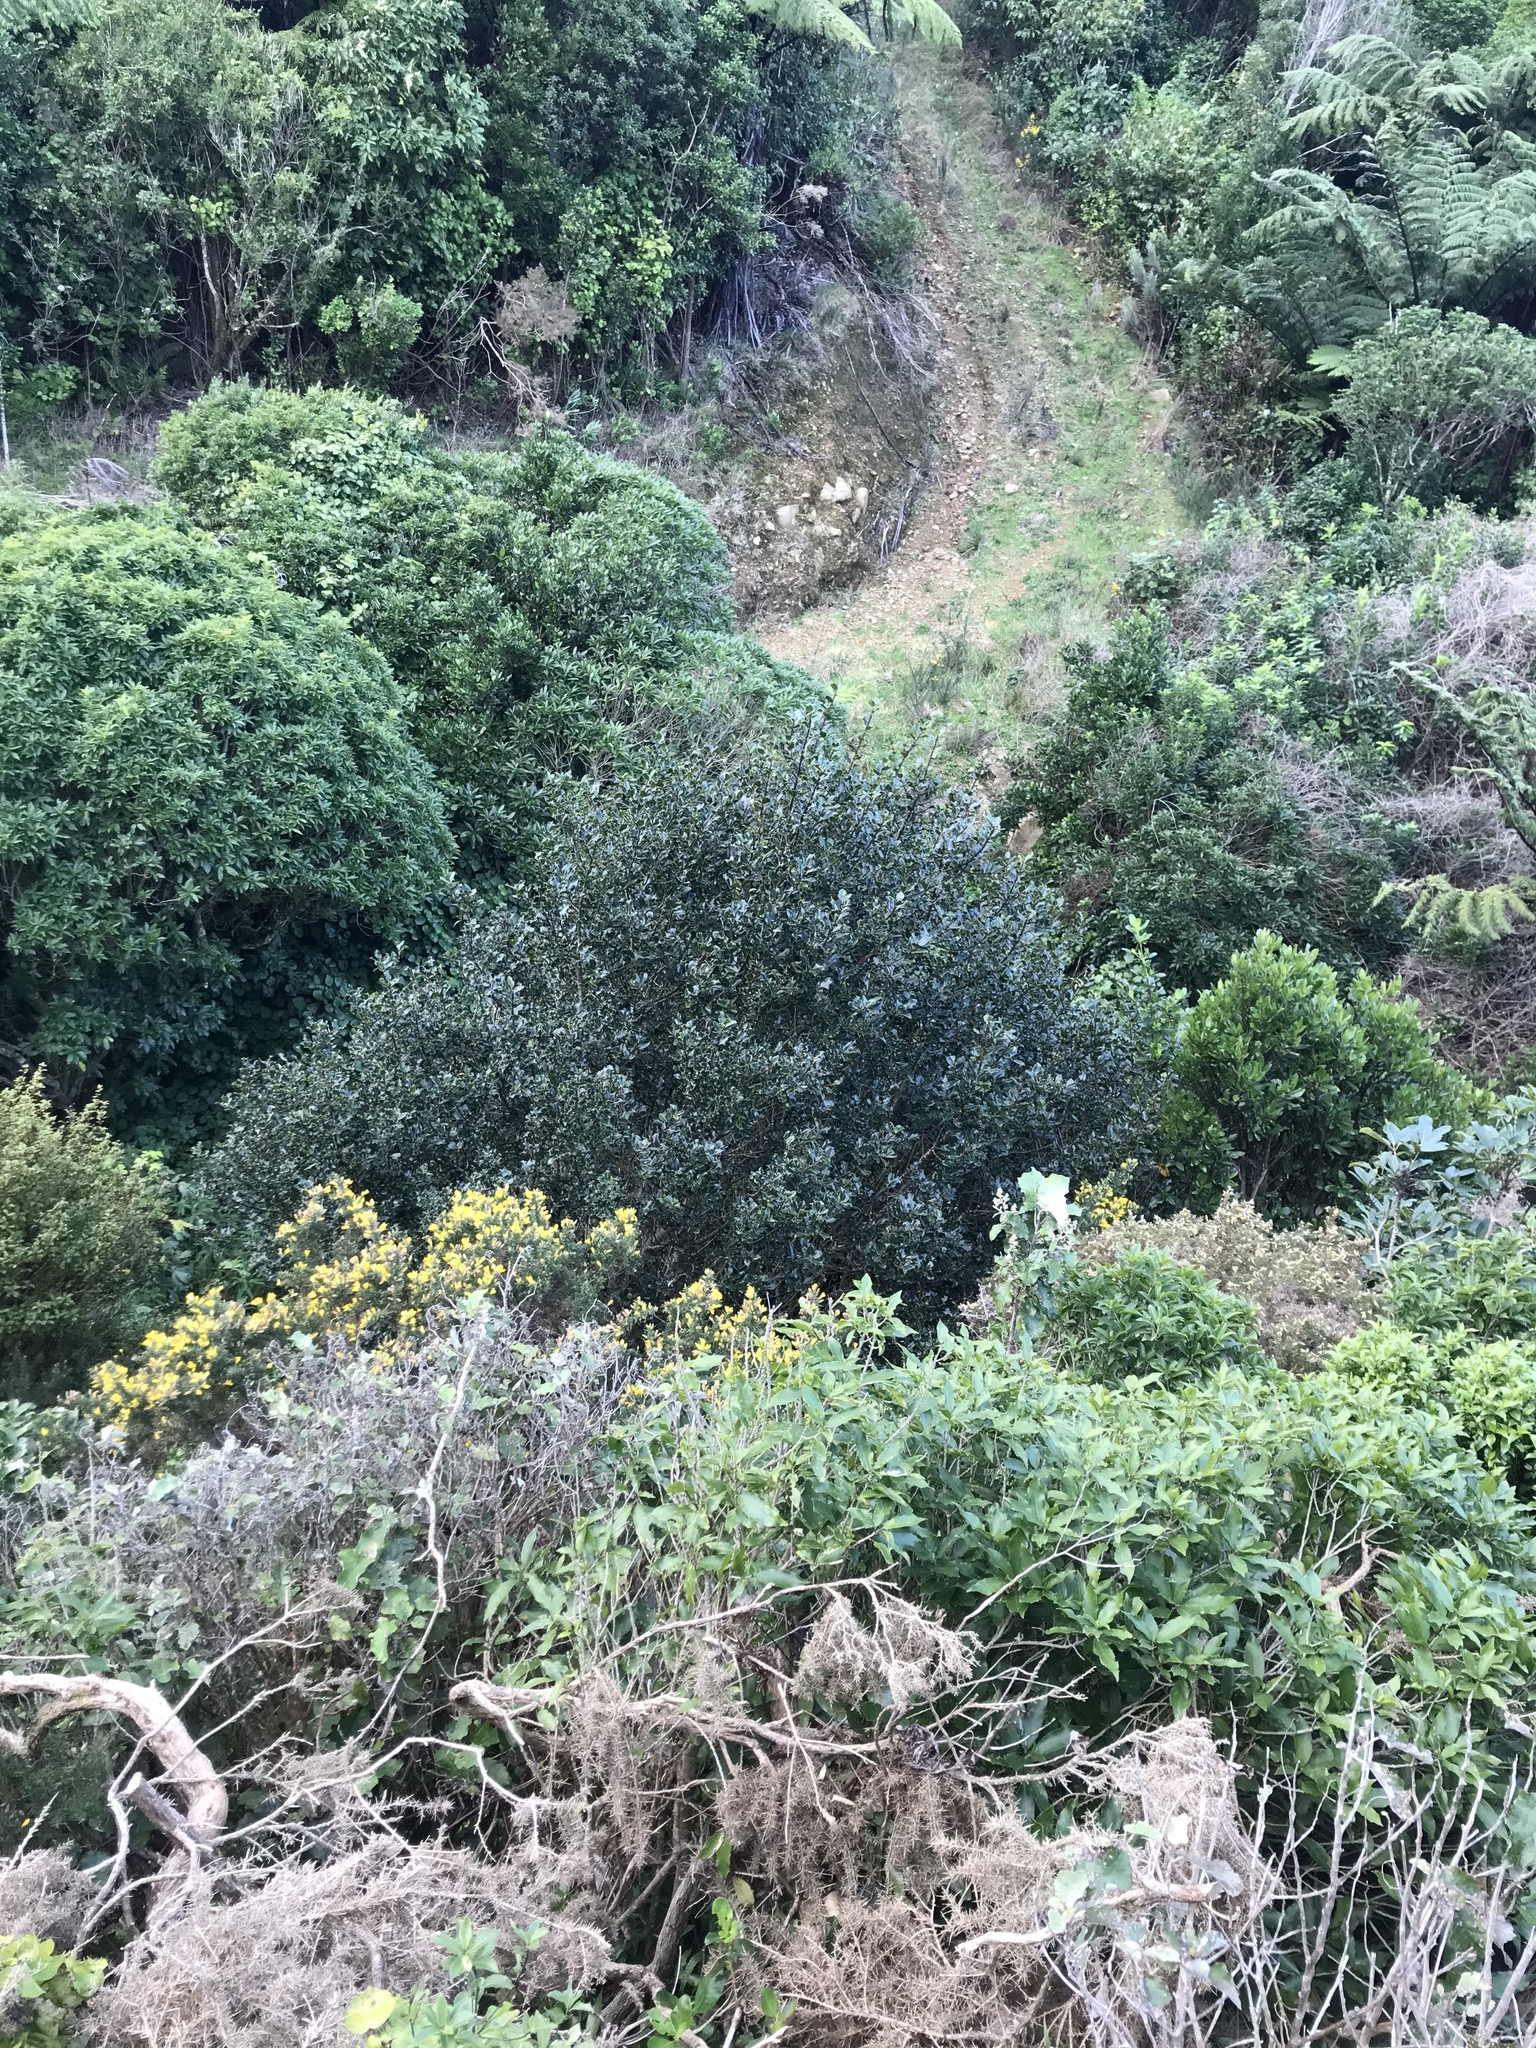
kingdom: Plantae
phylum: Tracheophyta
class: Magnoliopsida
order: Aquifoliales
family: Aquifoliaceae
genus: Ilex
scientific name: Ilex aquifolium
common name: English holly
